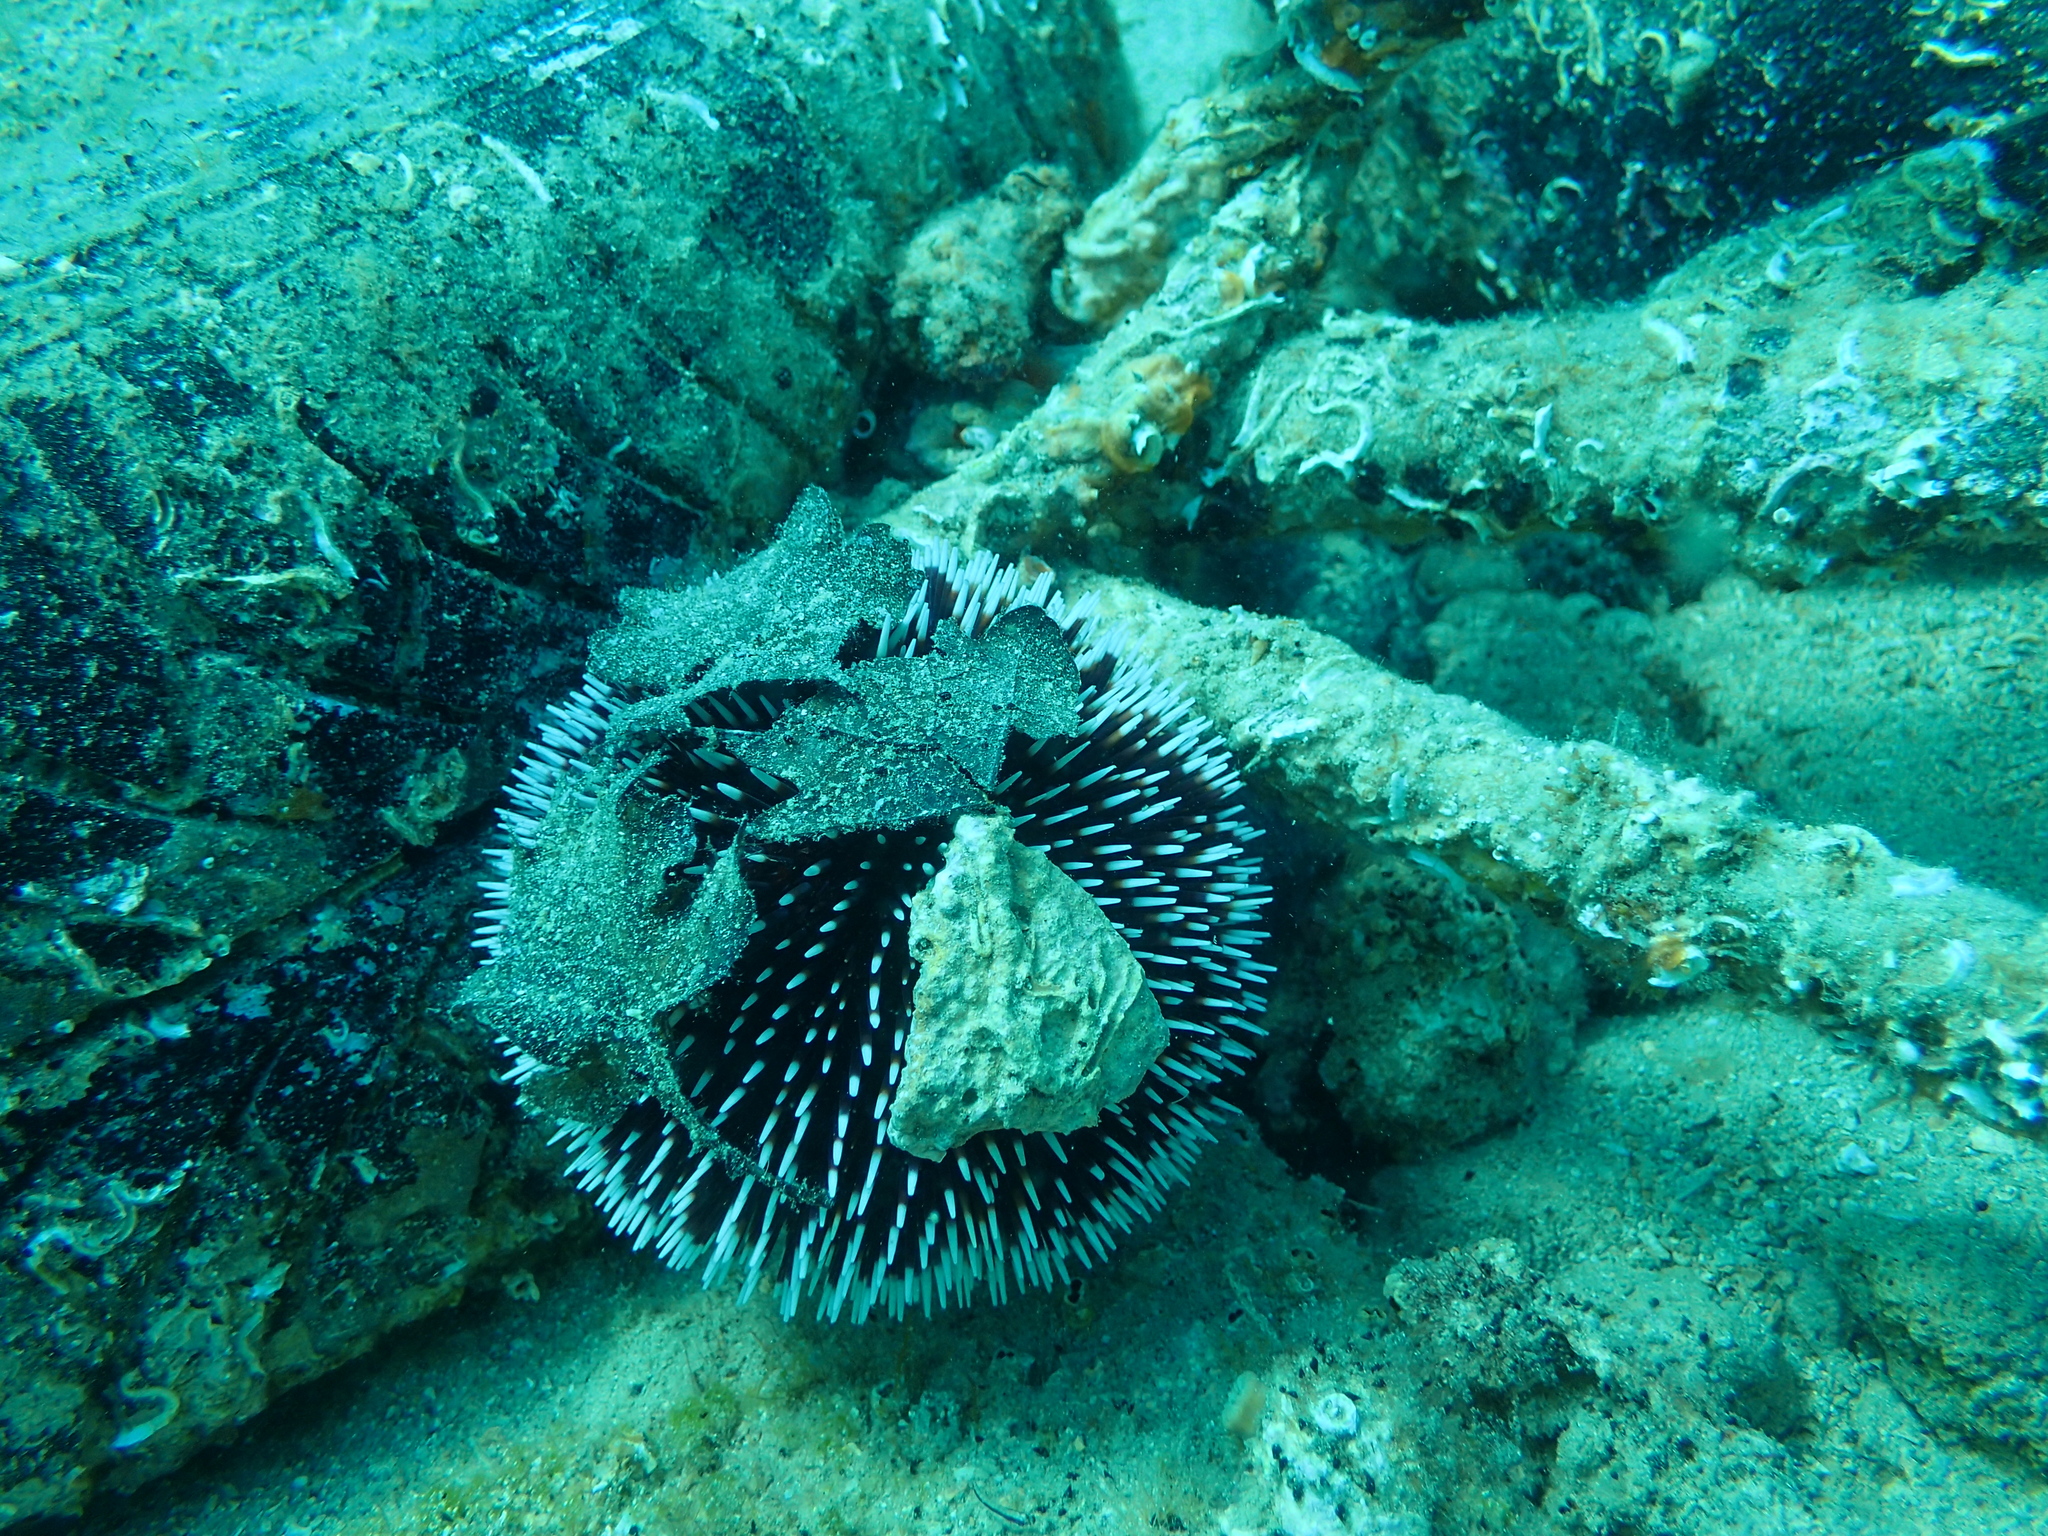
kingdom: Animalia
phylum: Echinodermata
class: Echinoidea
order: Camarodonta
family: Toxopneustidae
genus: Sphaerechinus
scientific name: Sphaerechinus granularis
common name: Violet sea urchin
